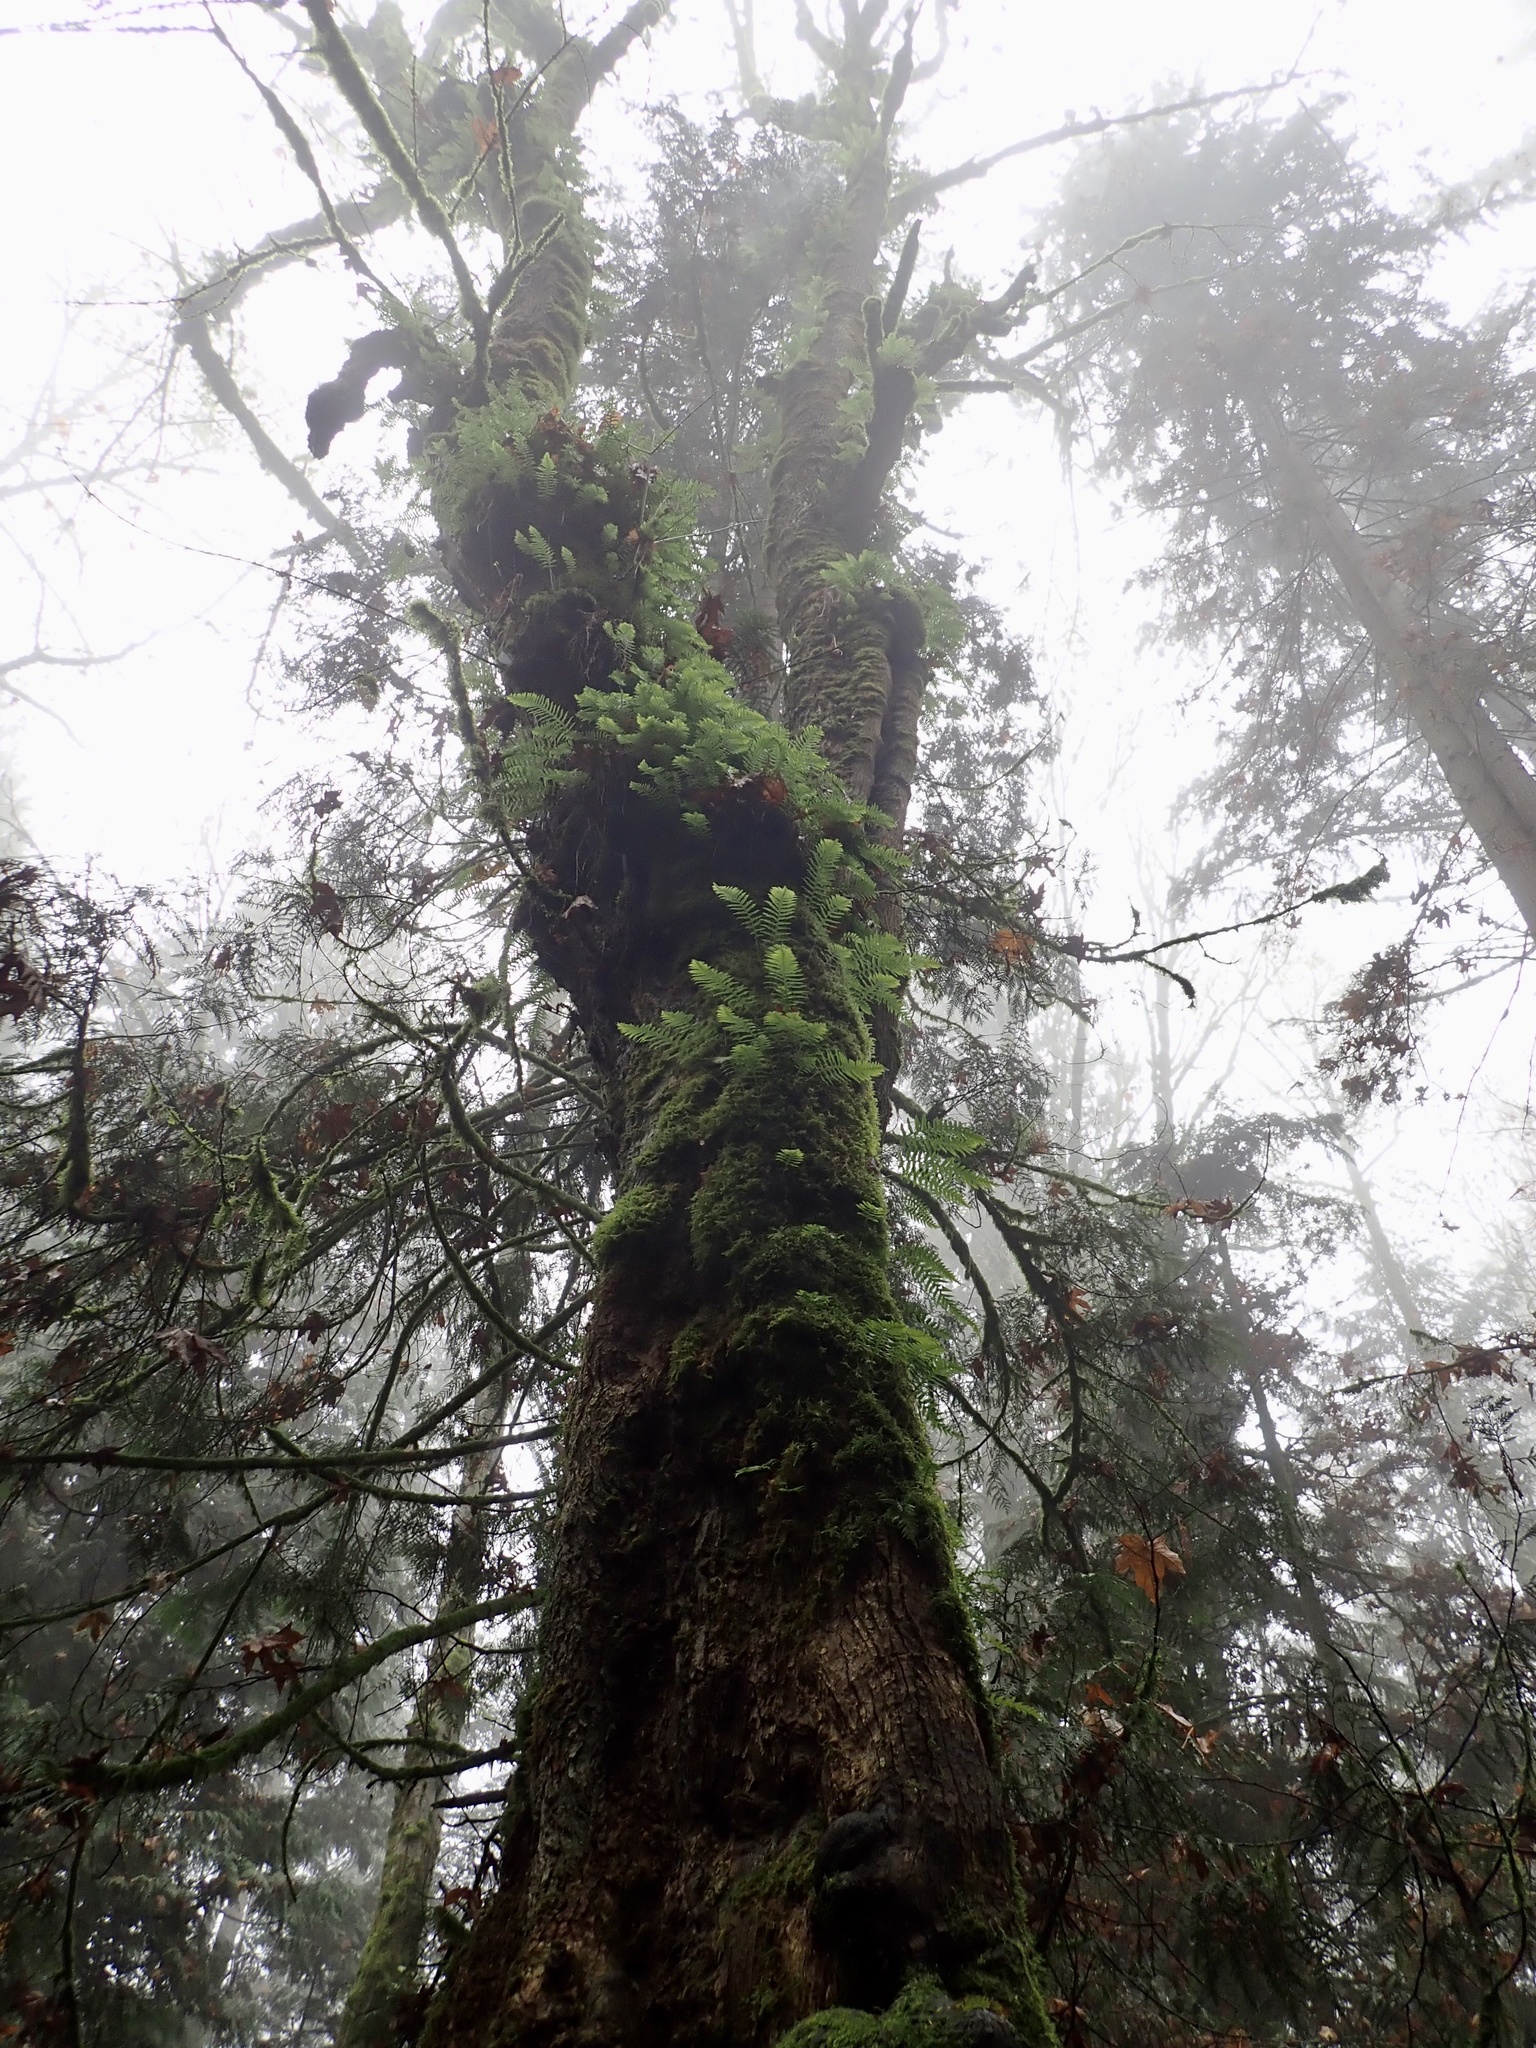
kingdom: Plantae
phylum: Tracheophyta
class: Magnoliopsida
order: Sapindales
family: Sapindaceae
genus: Acer
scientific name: Acer macrophyllum
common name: Oregon maple
